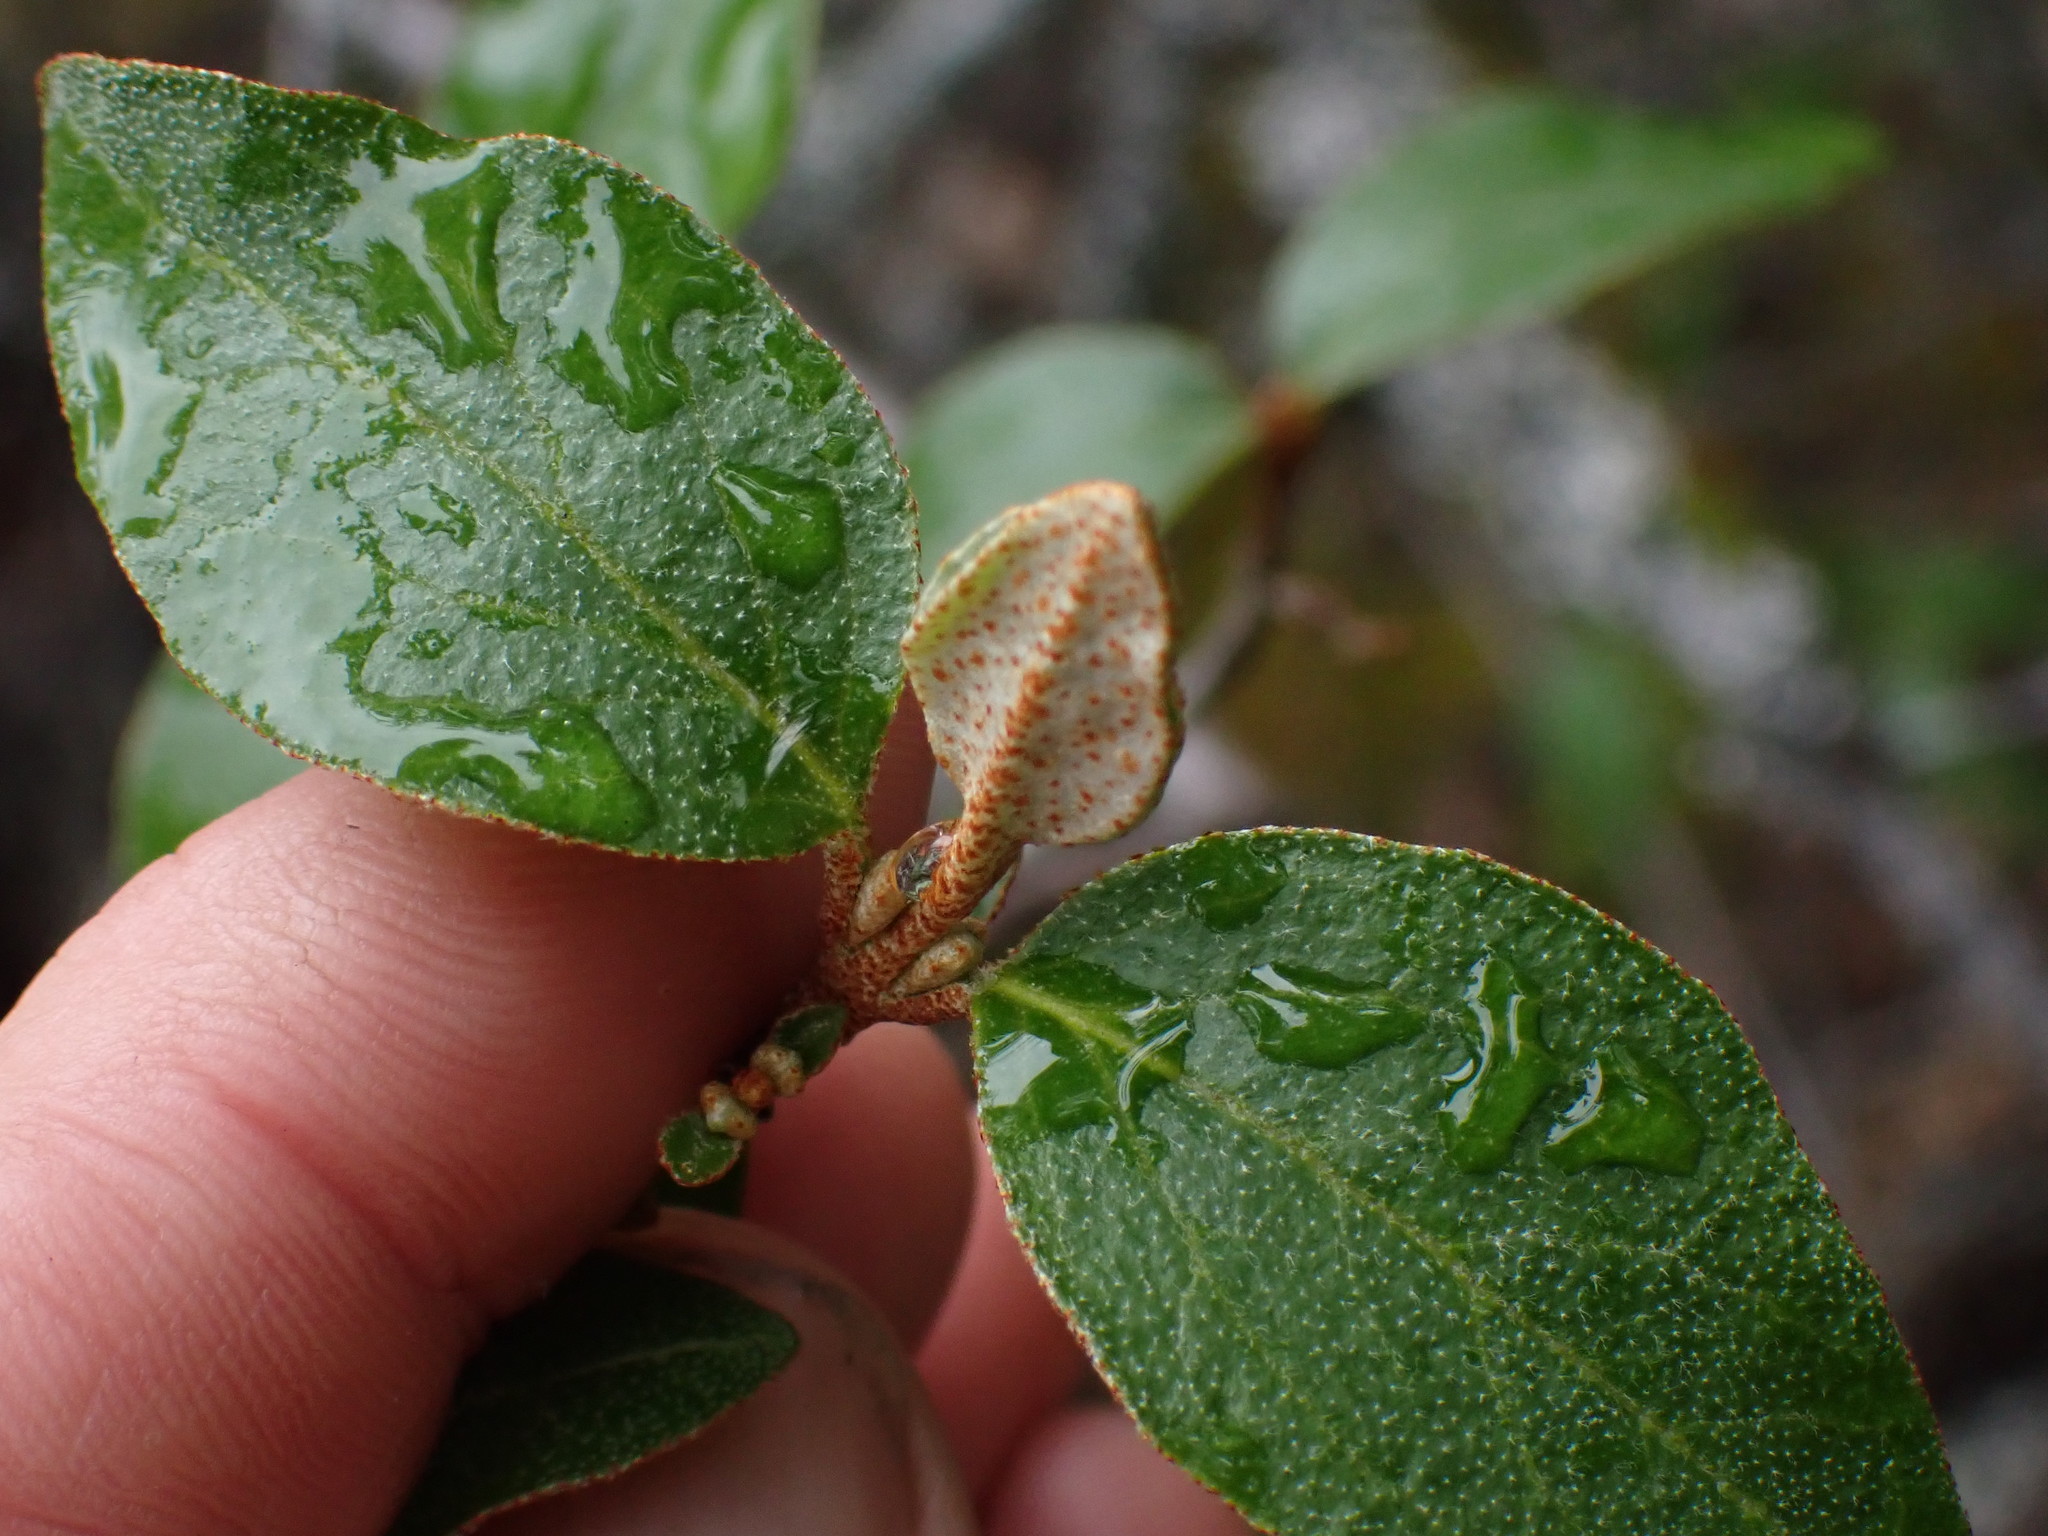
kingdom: Plantae
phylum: Tracheophyta
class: Magnoliopsida
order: Rosales
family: Elaeagnaceae
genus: Shepherdia
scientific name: Shepherdia canadensis
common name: Soapberry
